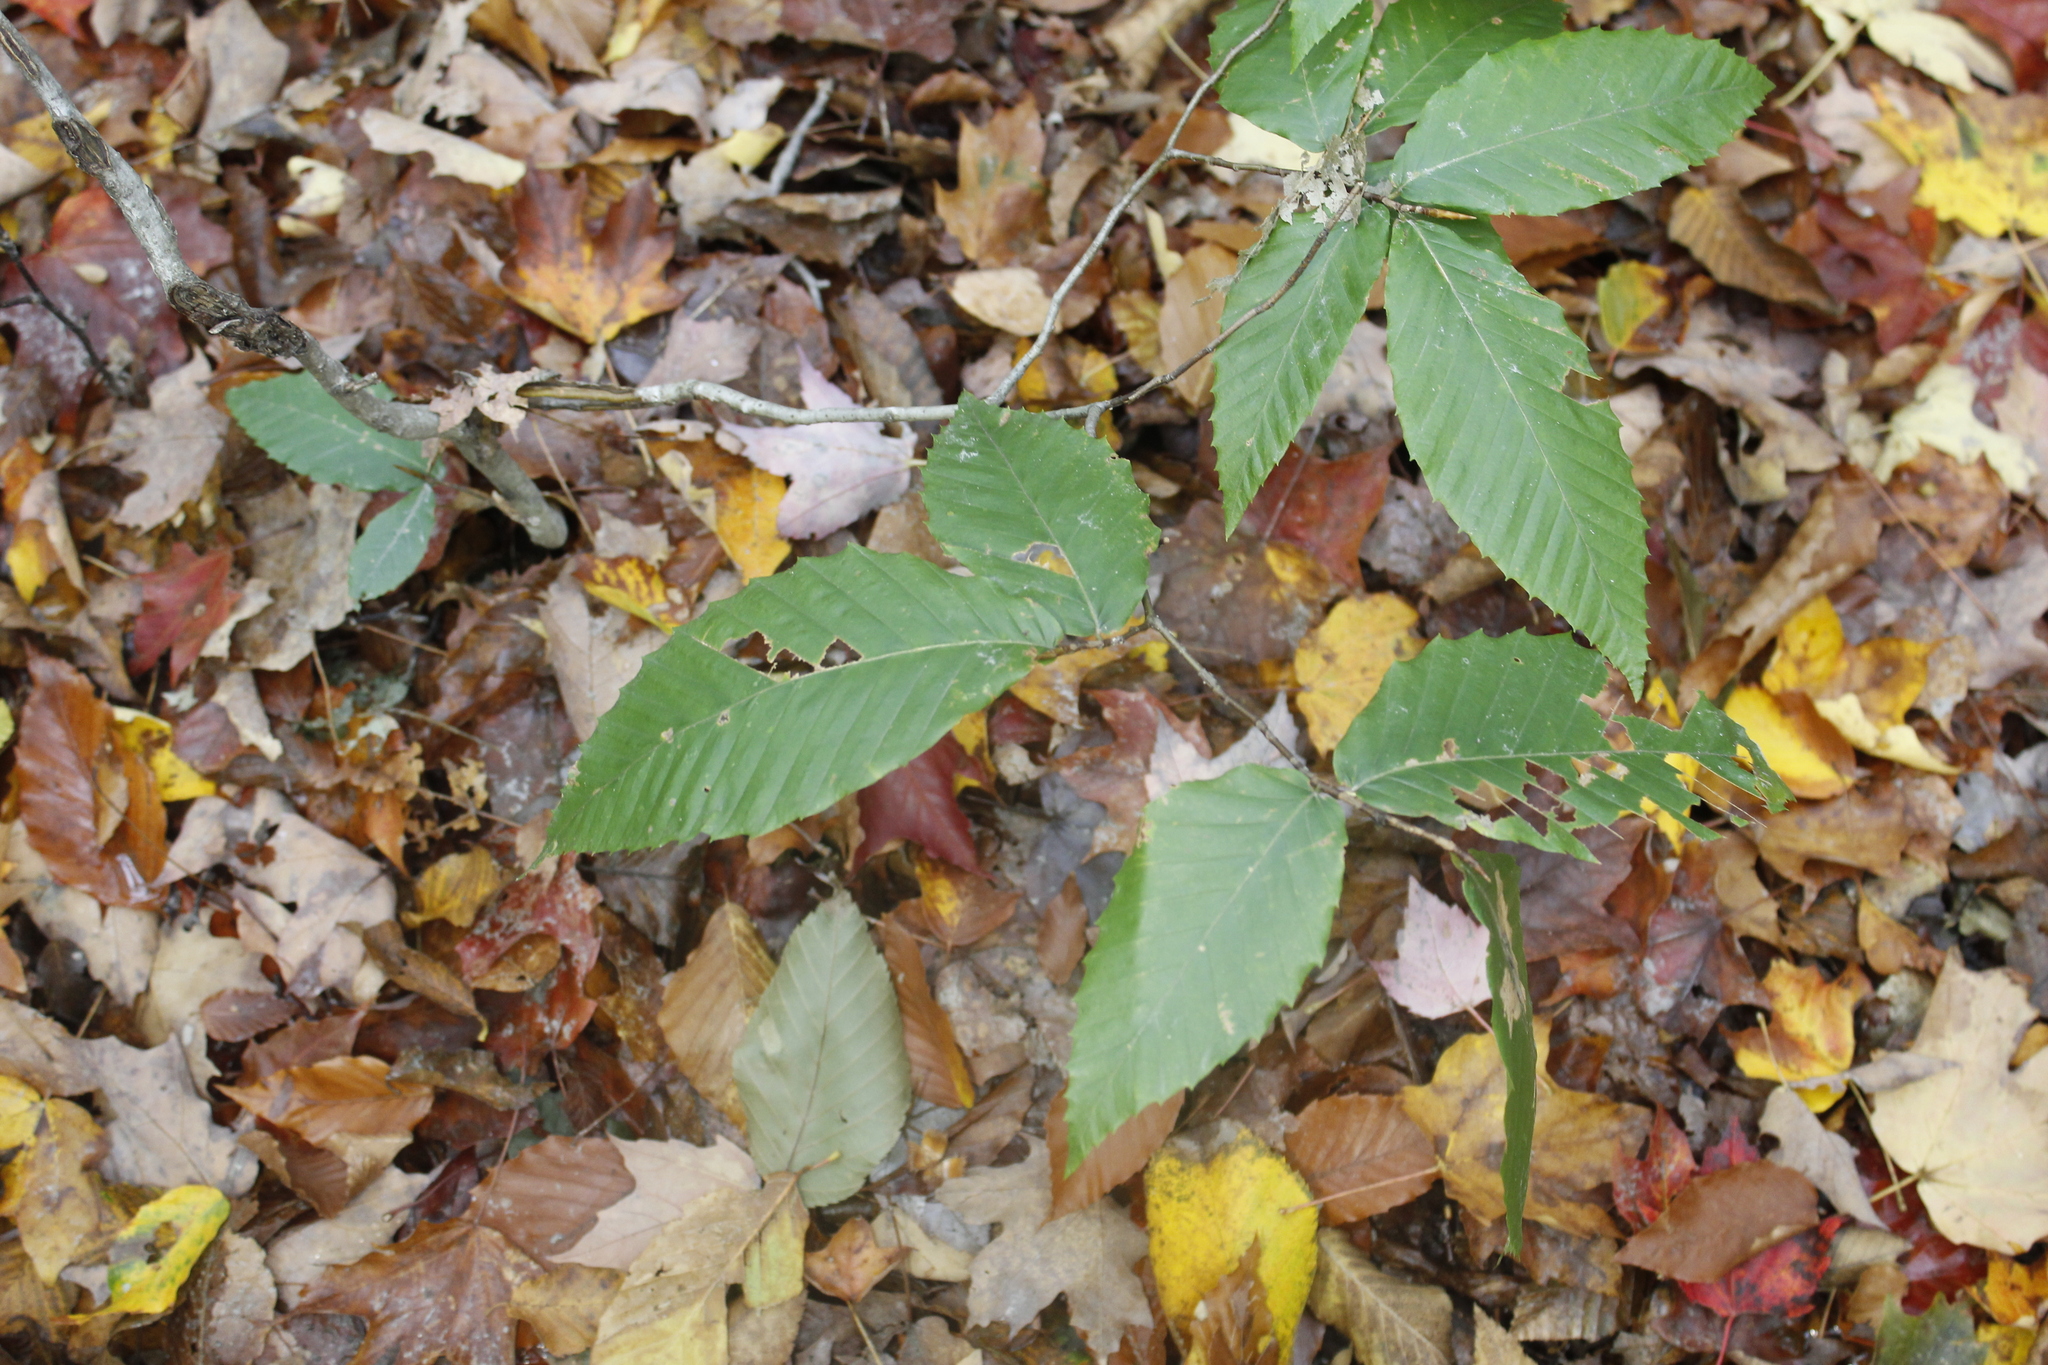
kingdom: Plantae
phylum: Tracheophyta
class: Magnoliopsida
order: Fagales
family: Fagaceae
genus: Fagus
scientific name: Fagus grandifolia
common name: American beech
